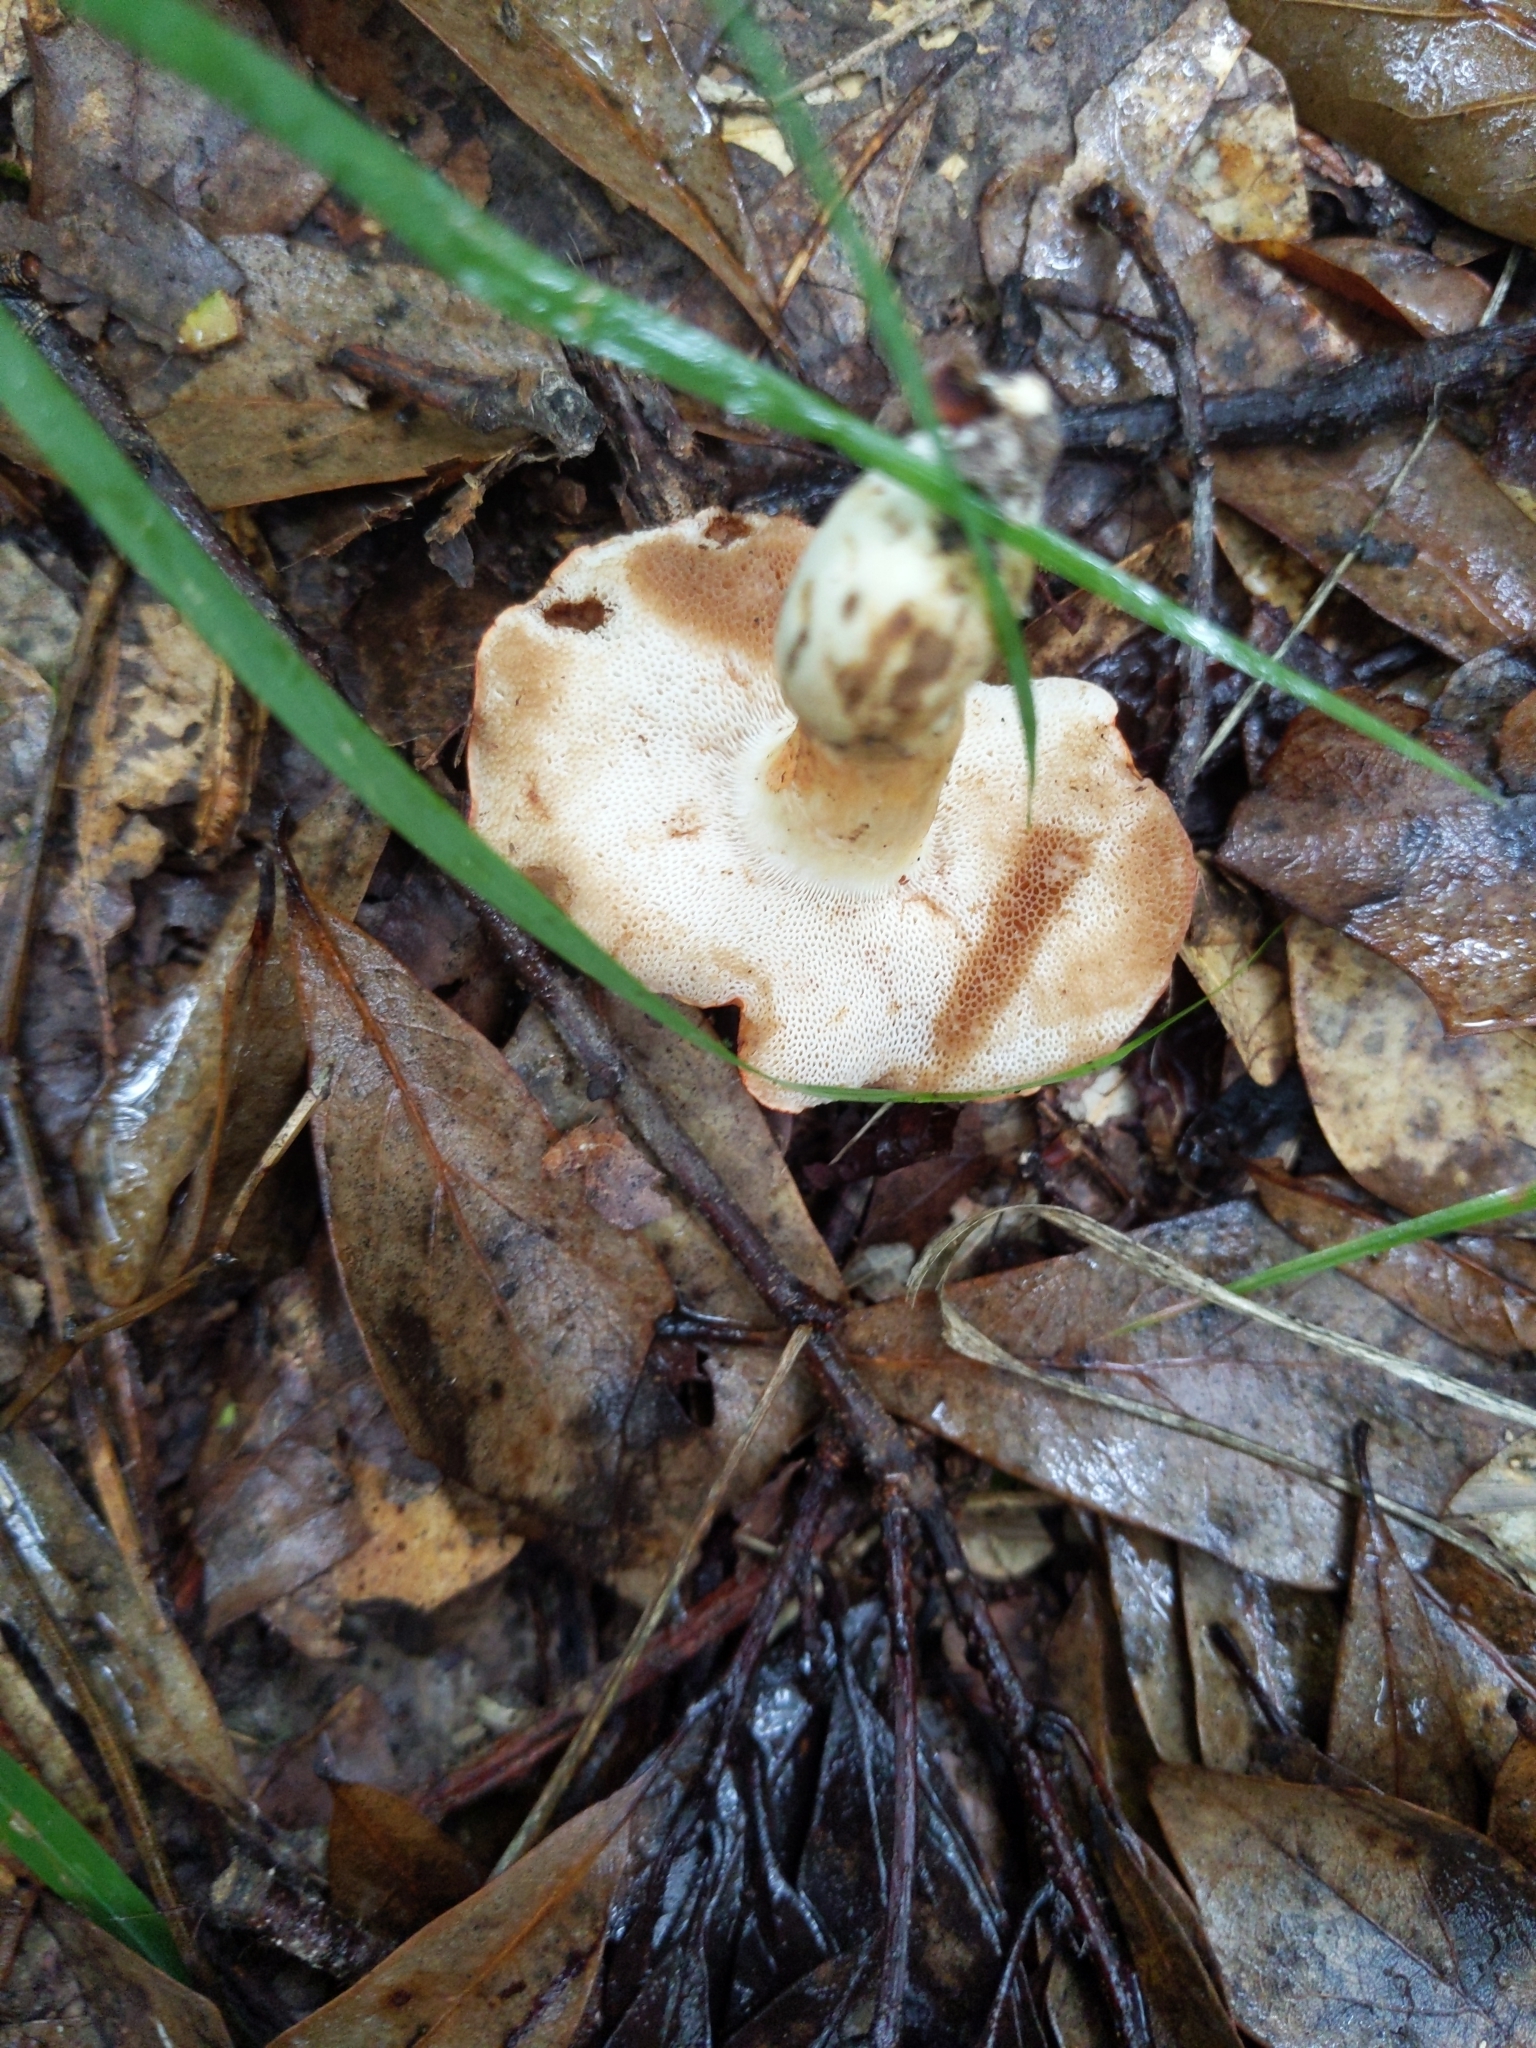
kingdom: Fungi
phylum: Basidiomycota
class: Agaricomycetes
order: Boletales
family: Boletaceae
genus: Tylopilus
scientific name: Tylopilus balloui
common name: Burnt-orange bolete
